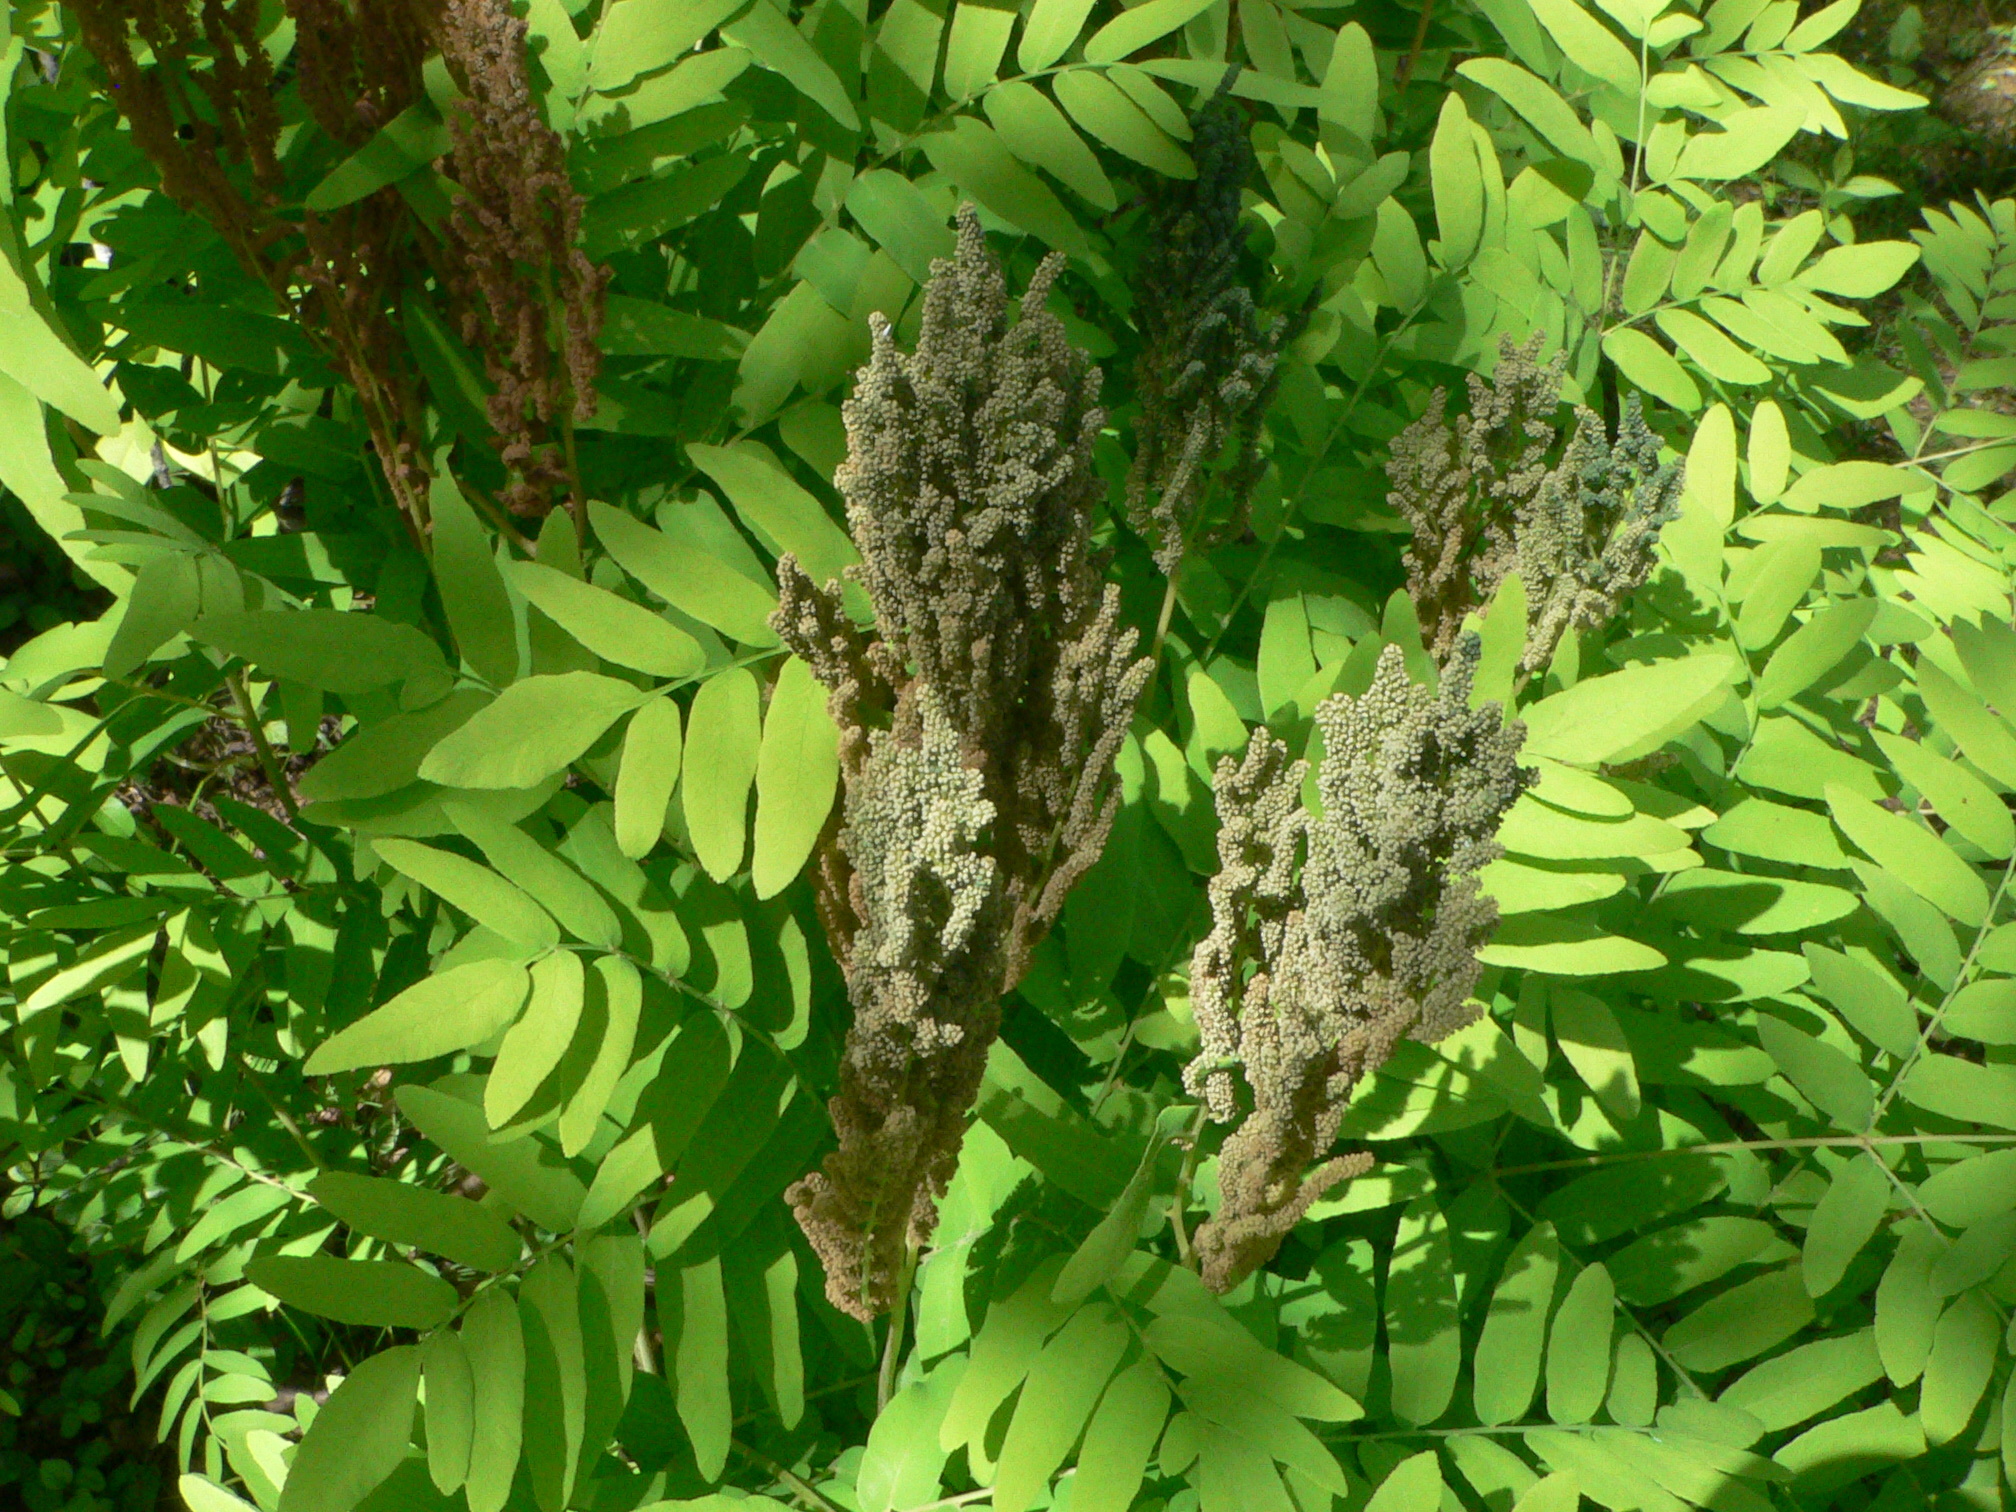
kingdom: Plantae
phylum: Tracheophyta
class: Polypodiopsida
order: Osmundales
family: Osmundaceae
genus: Osmunda
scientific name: Osmunda spectabilis
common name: American royal fern
